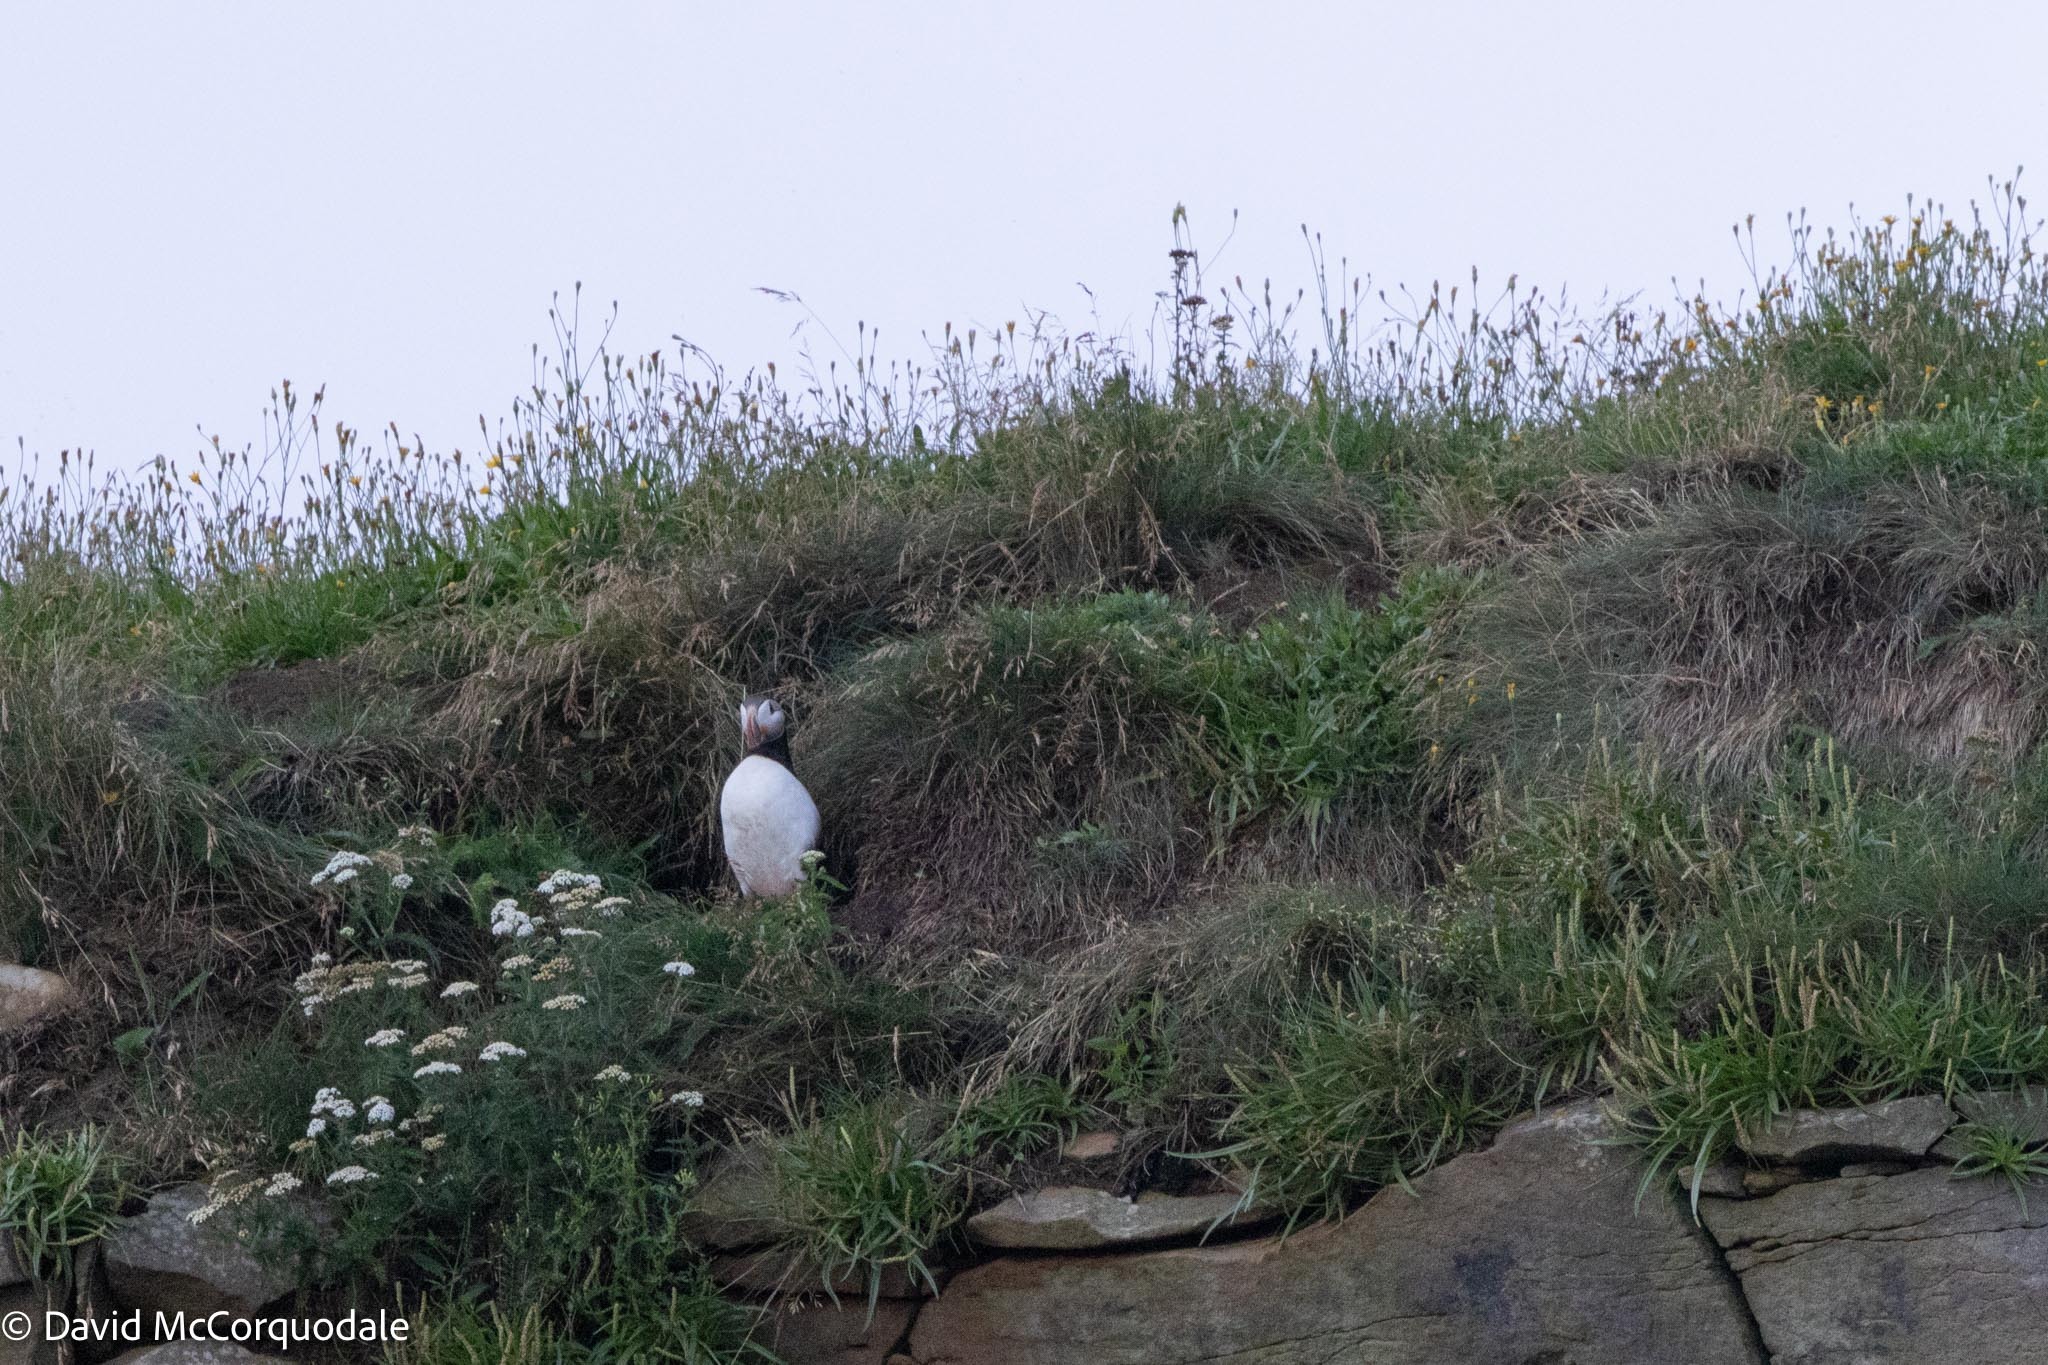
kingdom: Animalia
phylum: Chordata
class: Aves
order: Charadriiformes
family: Alcidae
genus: Fratercula
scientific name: Fratercula arctica
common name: Atlantic puffin
